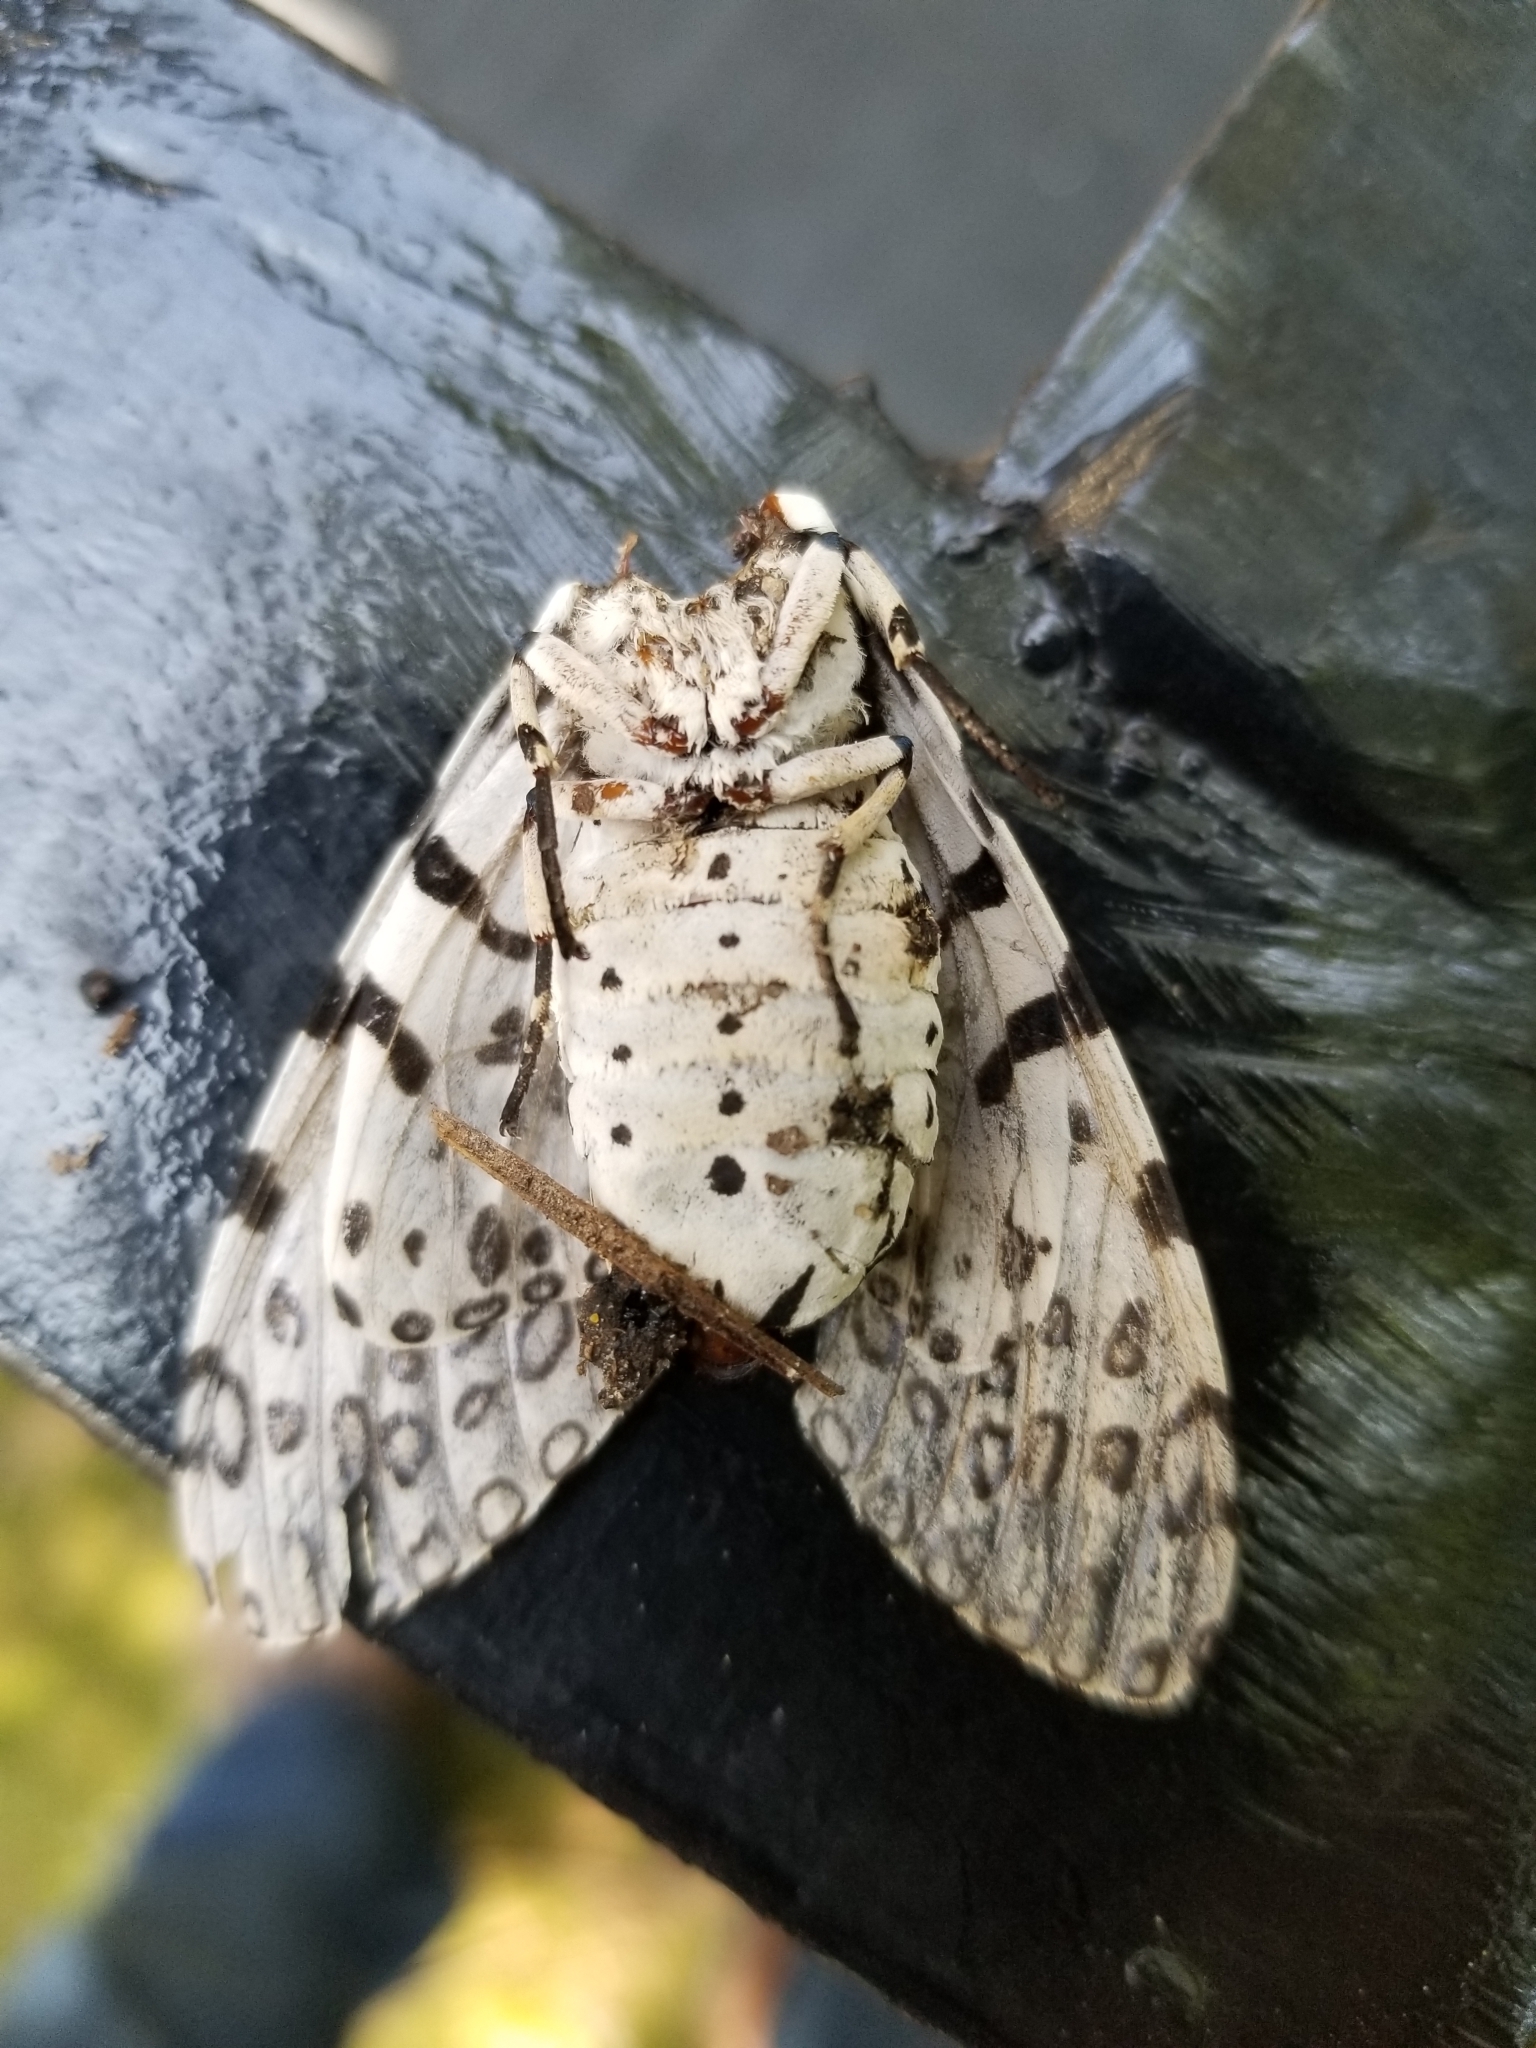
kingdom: Animalia
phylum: Arthropoda
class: Insecta
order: Lepidoptera
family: Erebidae
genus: Hypercompe
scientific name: Hypercompe scribonia
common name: Giant leopard moth
